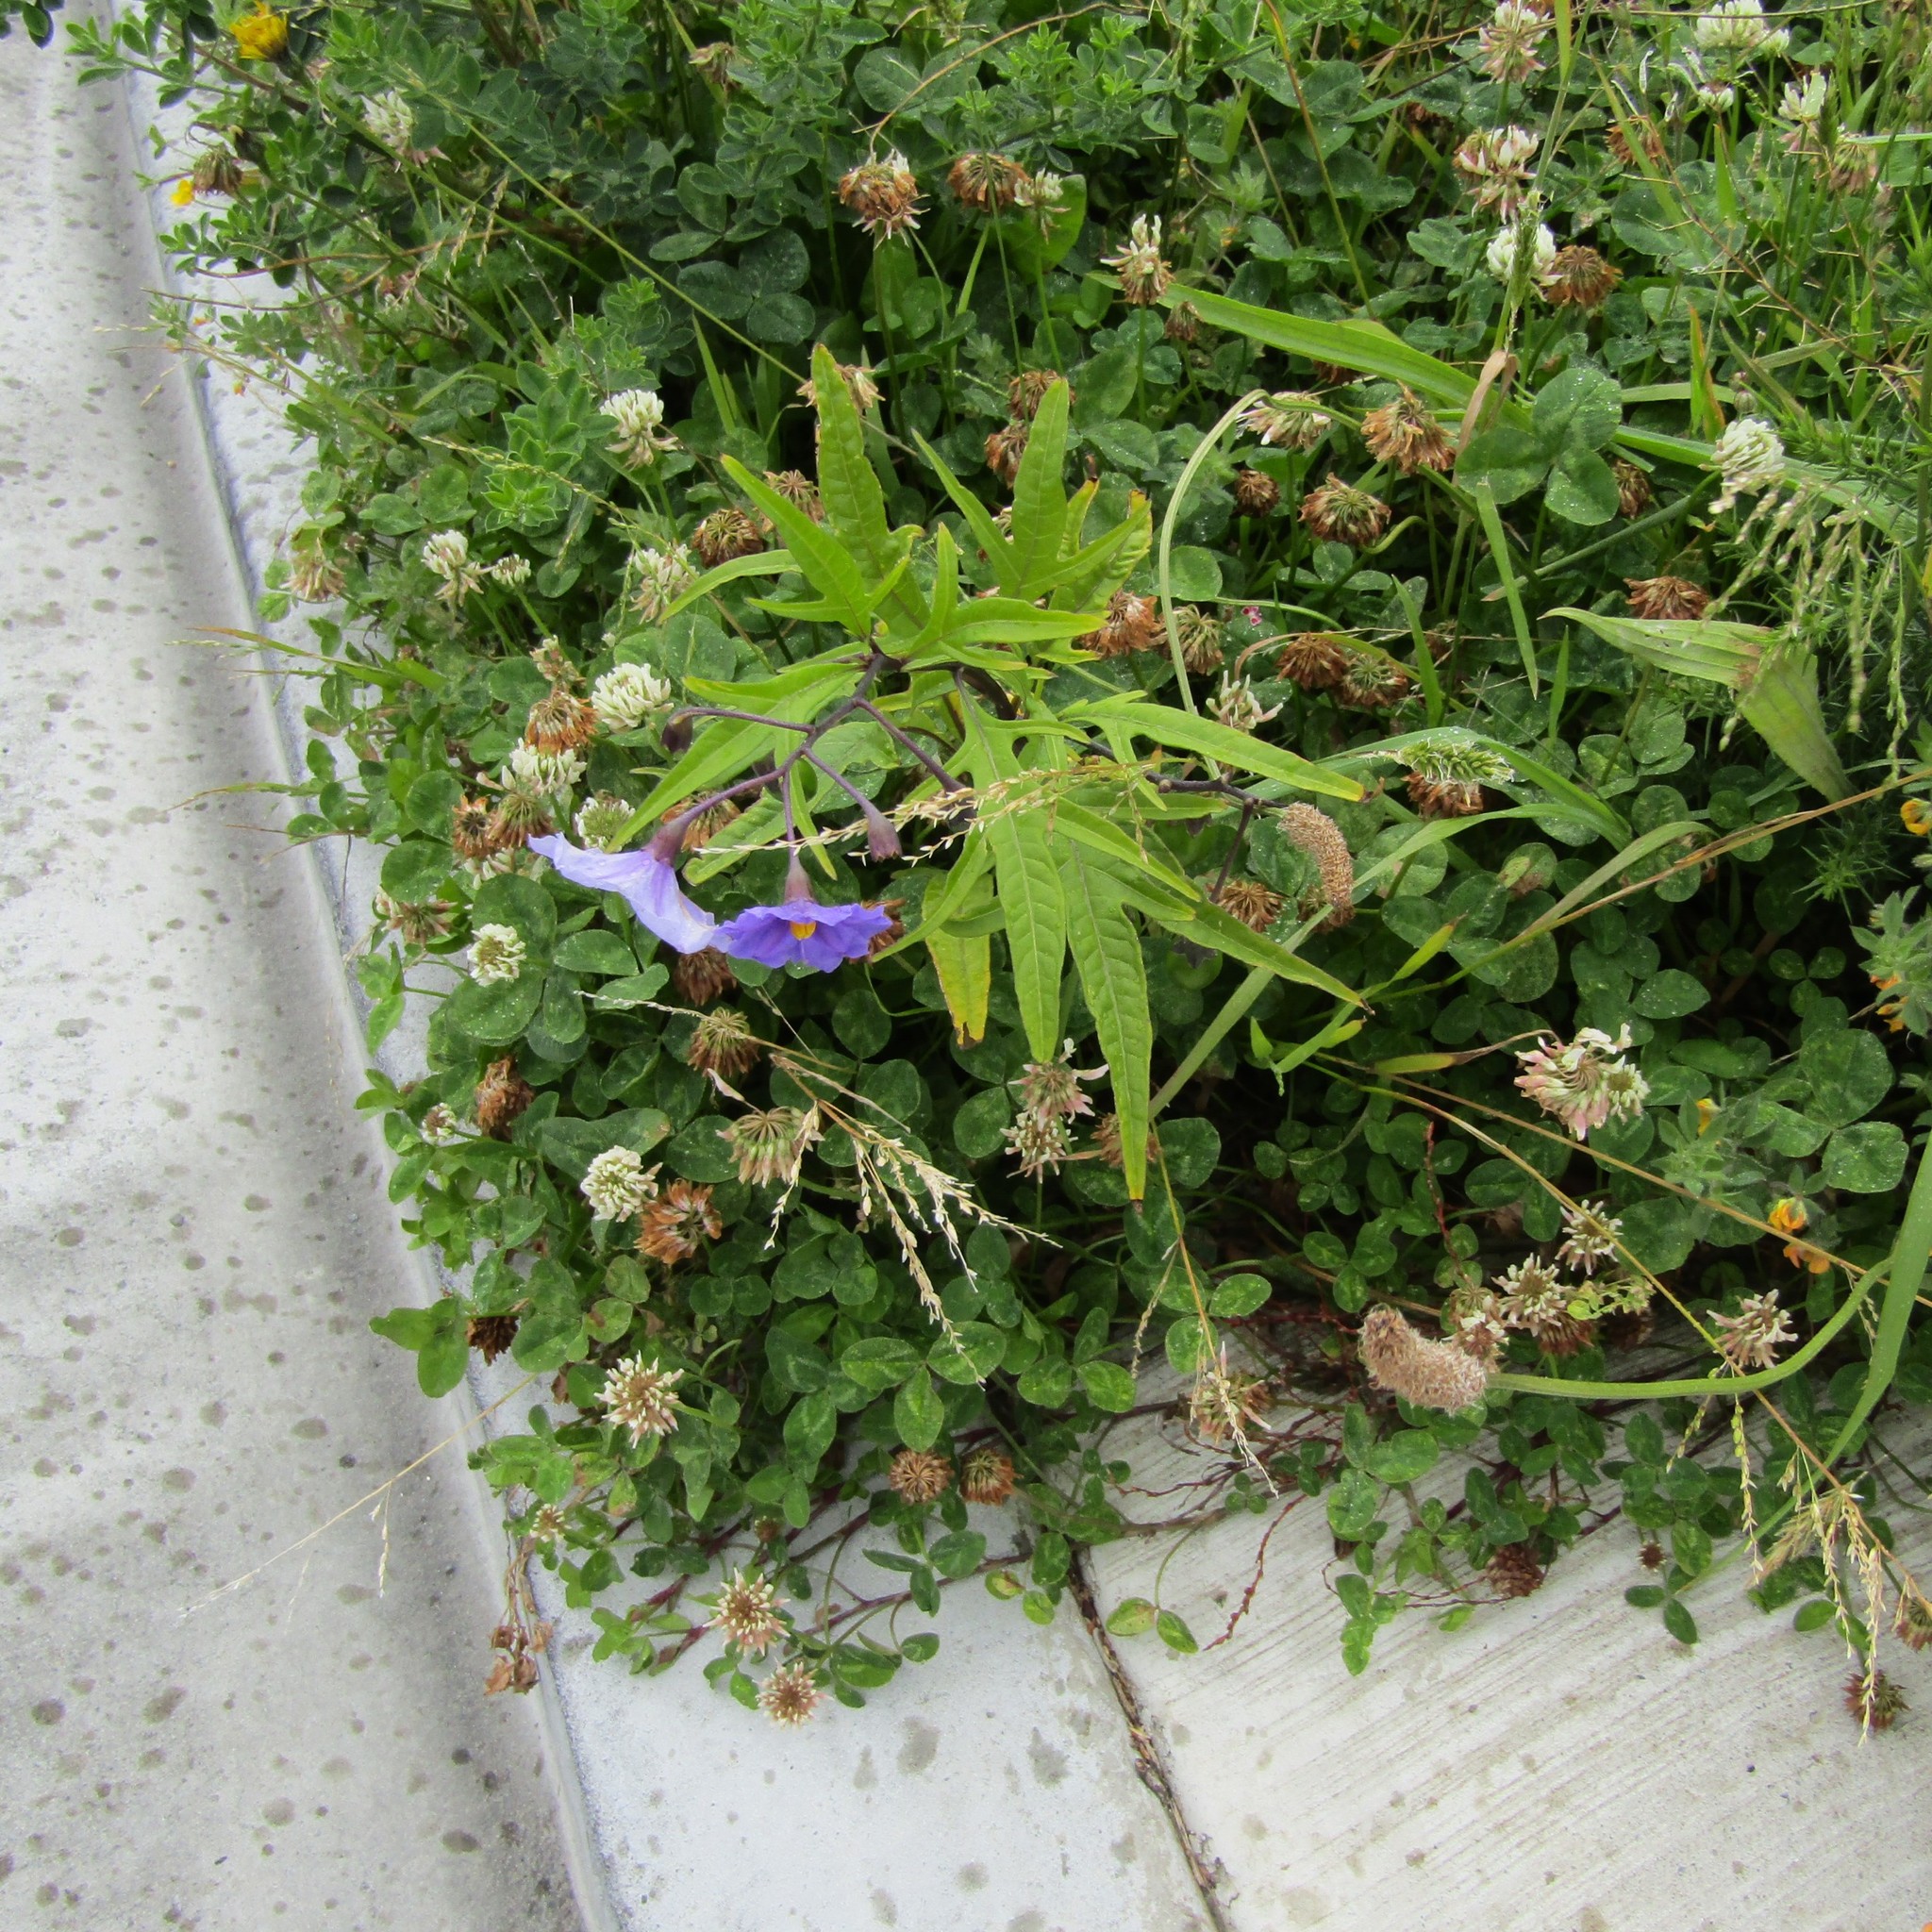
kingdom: Plantae
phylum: Tracheophyta
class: Magnoliopsida
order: Solanales
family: Solanaceae
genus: Solanum
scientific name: Solanum laciniatum
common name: Kangaroo-apple
